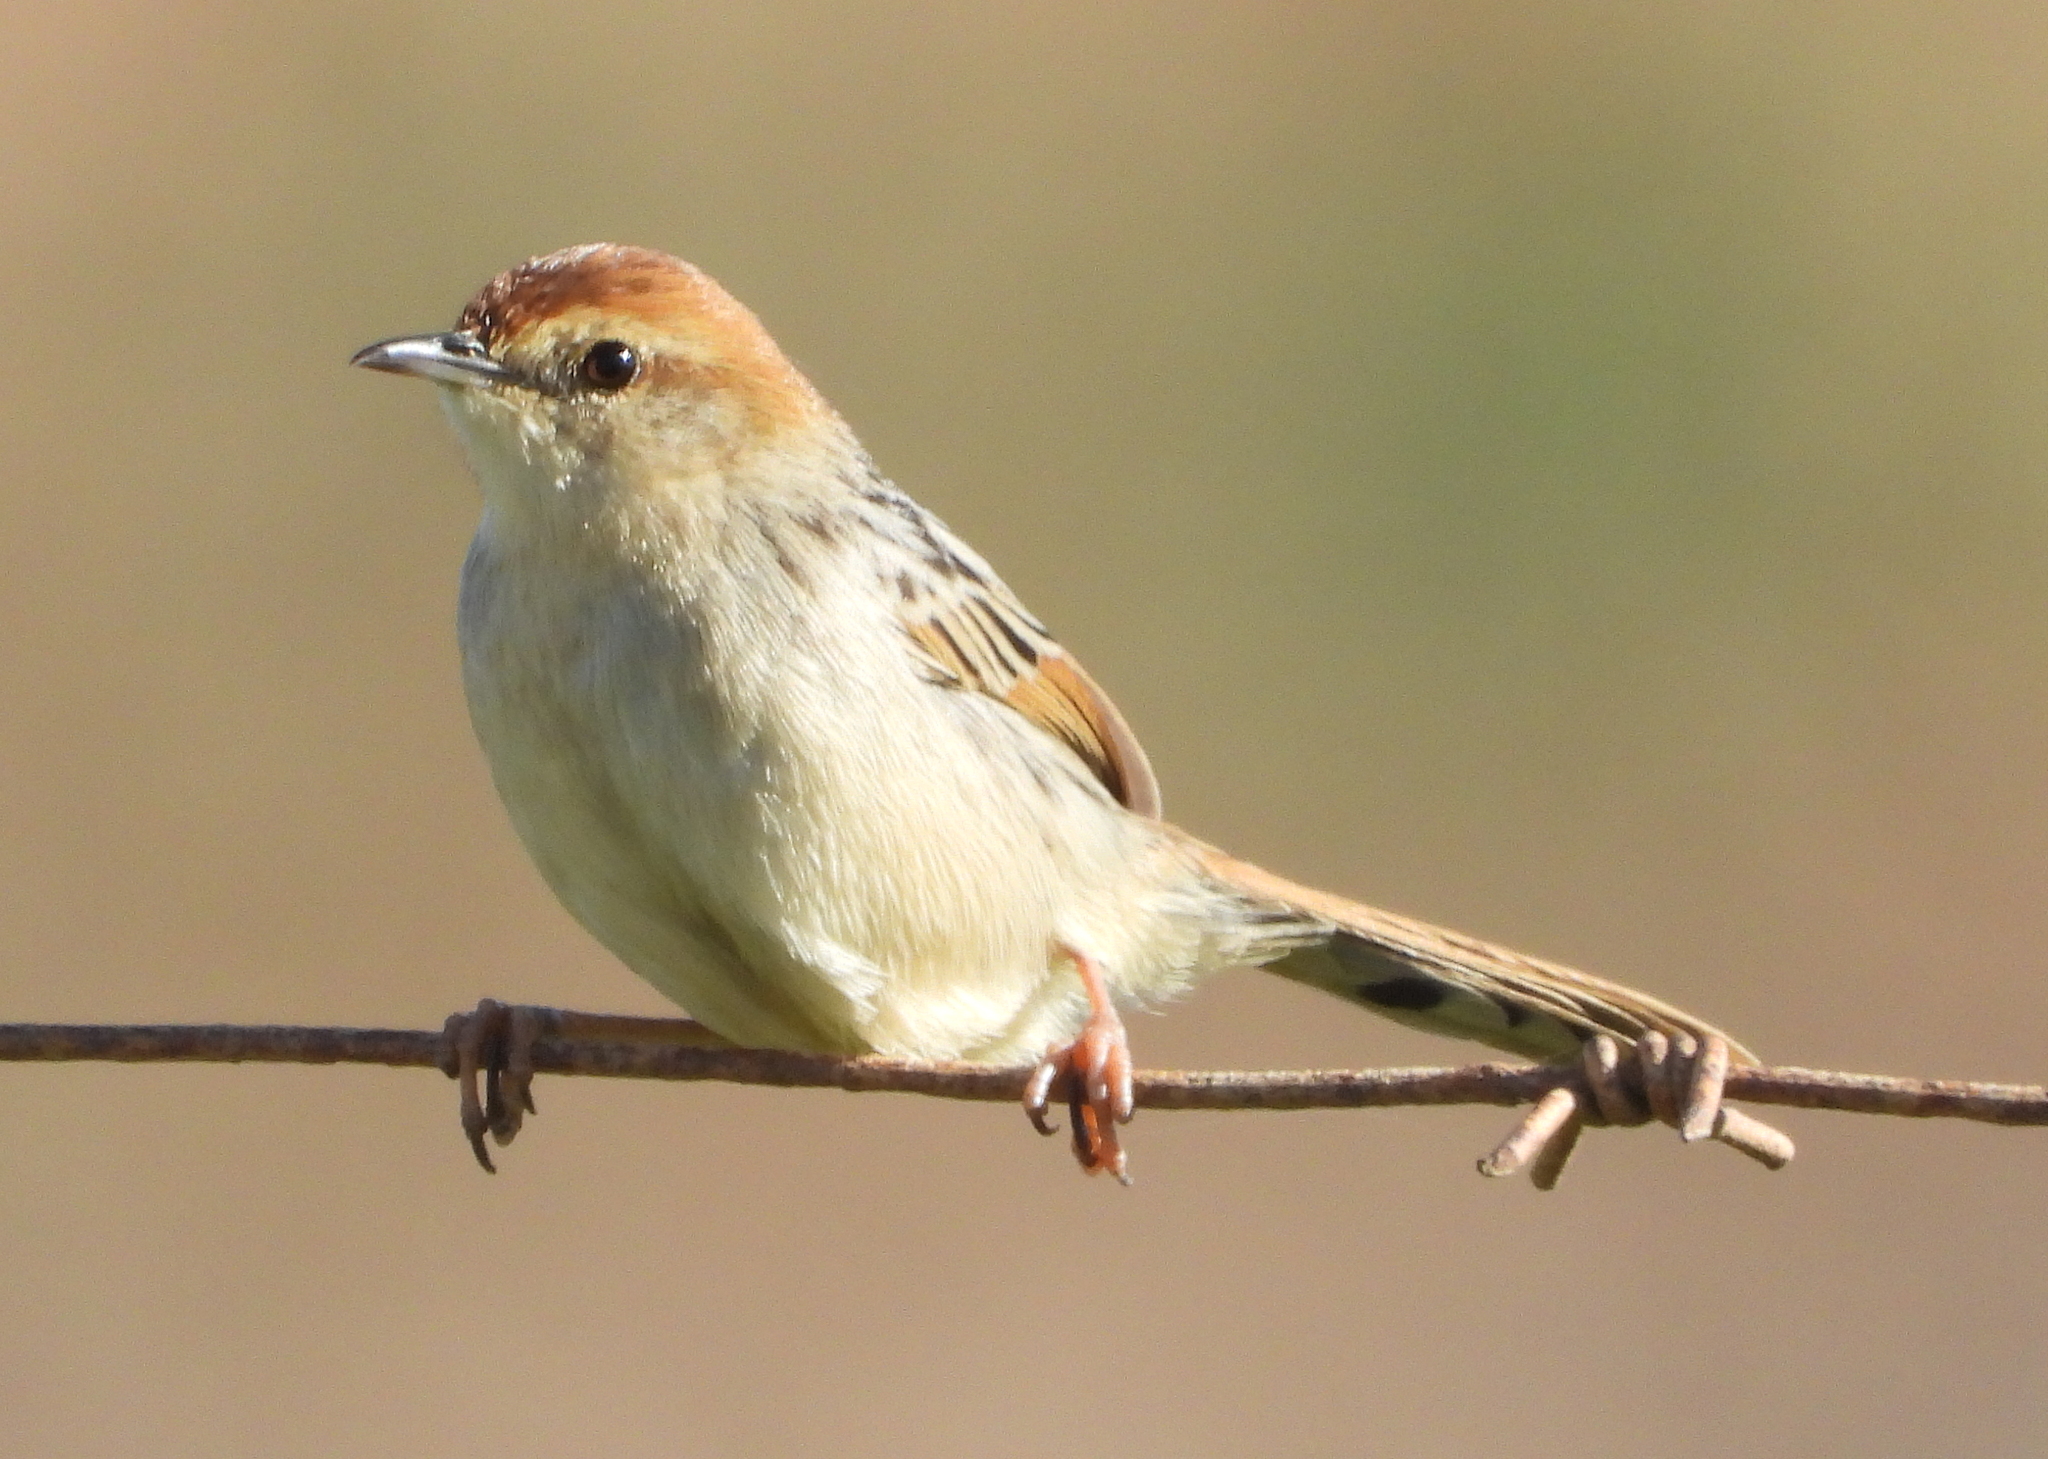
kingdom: Animalia
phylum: Chordata
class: Aves
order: Passeriformes
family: Cisticolidae
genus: Cisticola
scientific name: Cisticola tinniens
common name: Levaillant's cisticola
